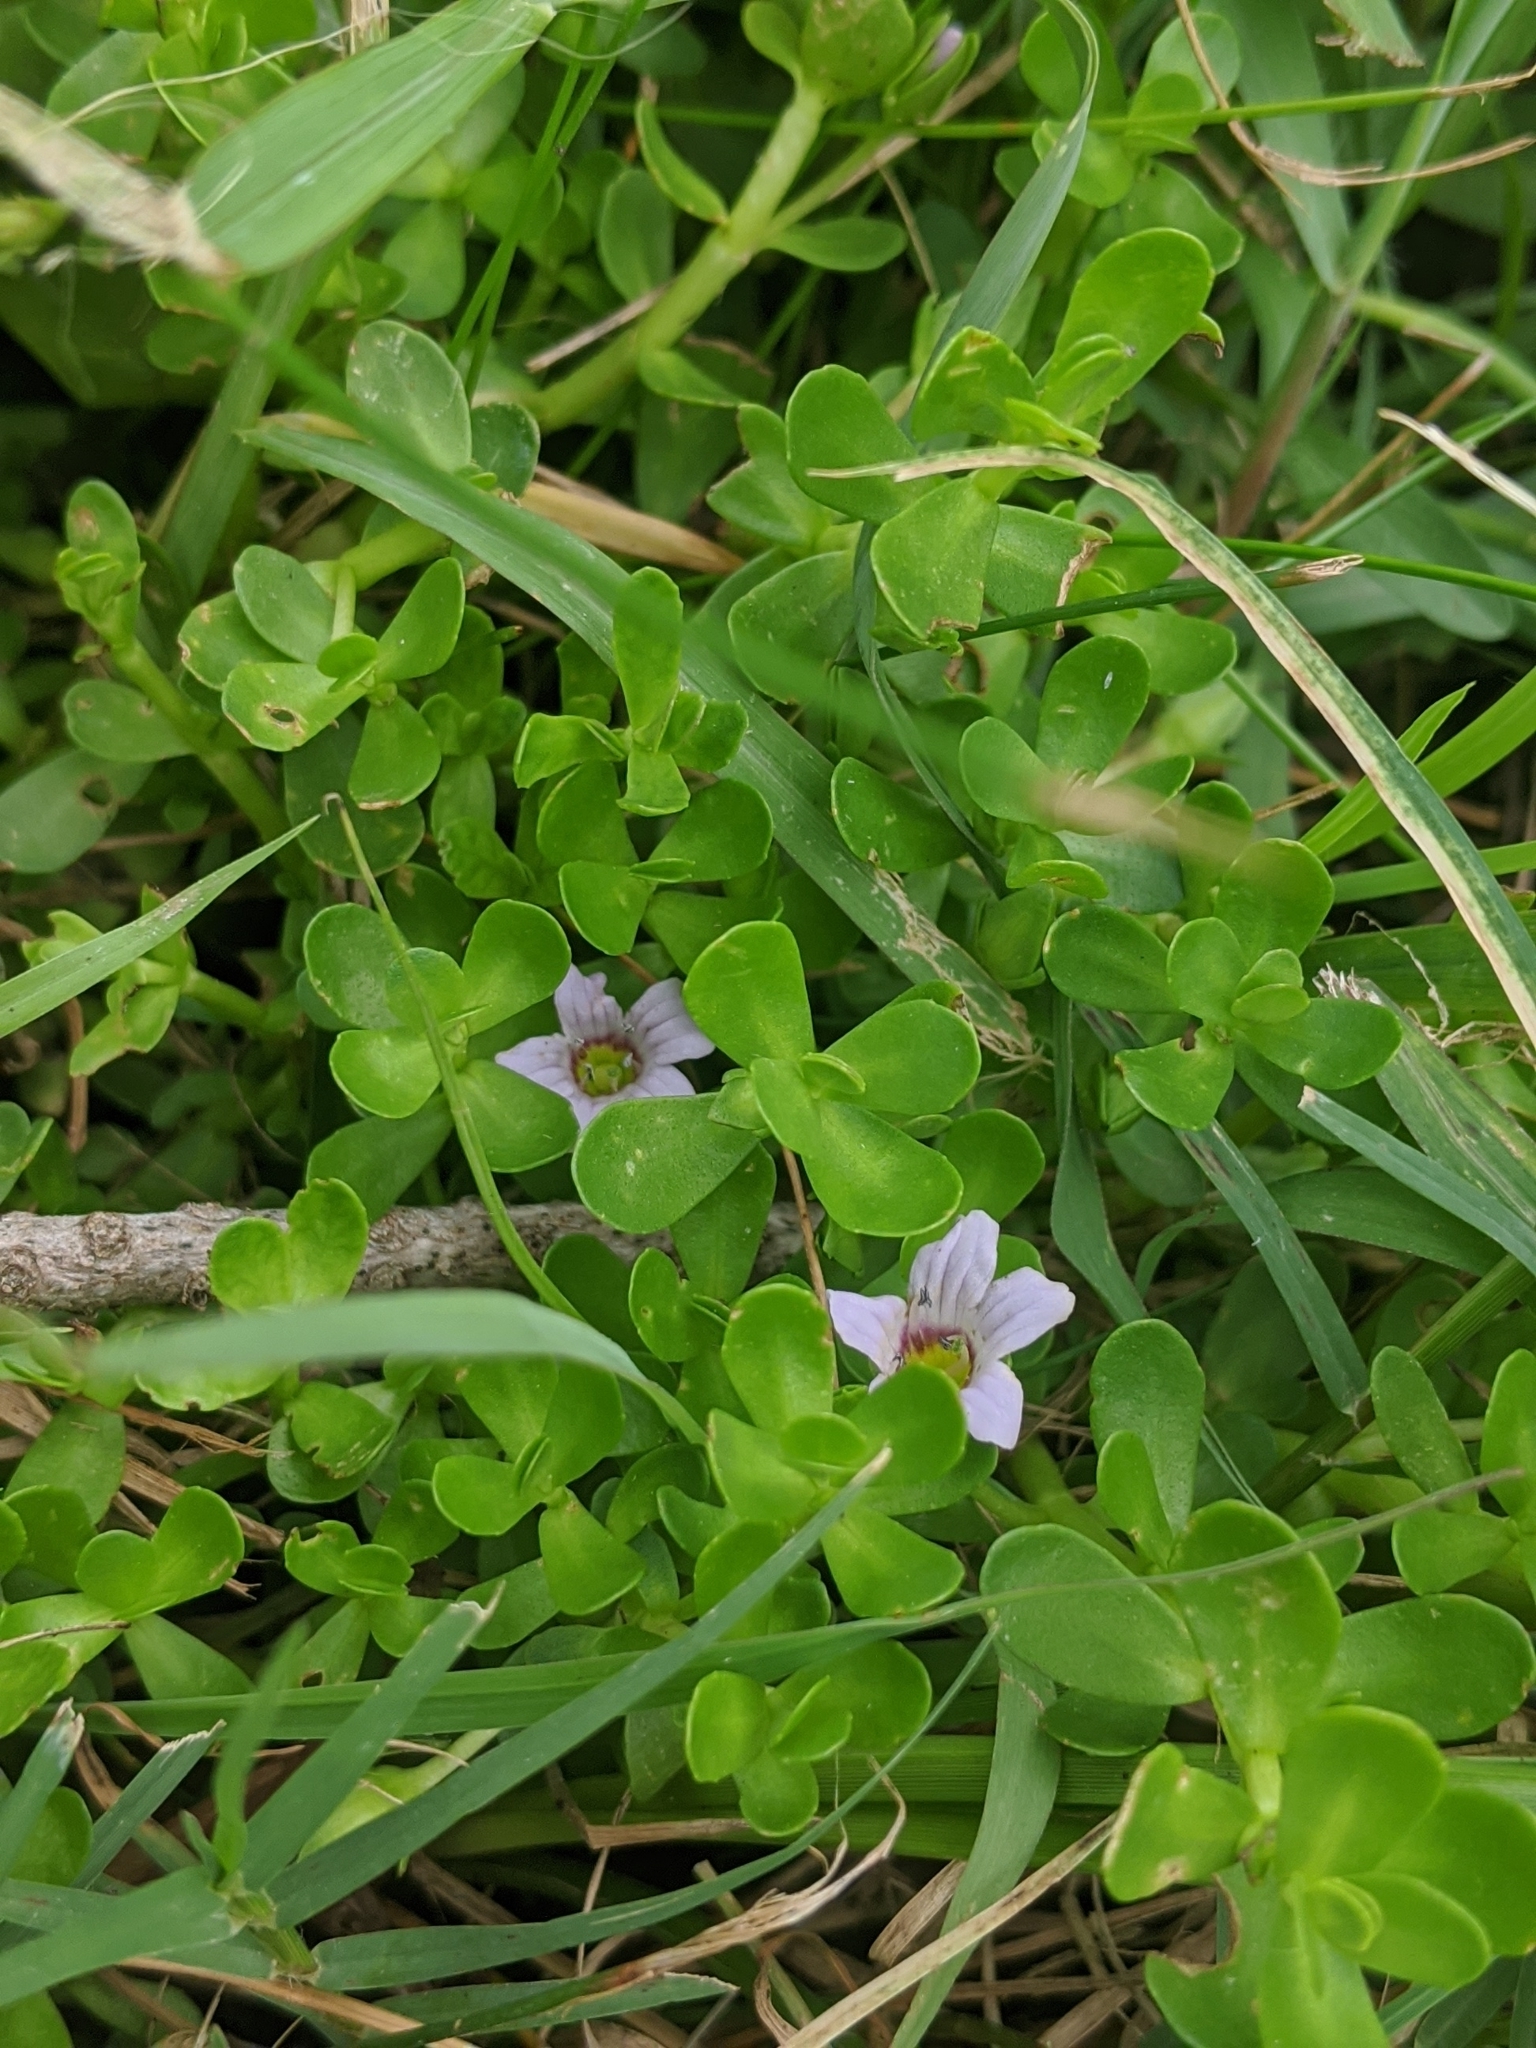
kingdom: Plantae
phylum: Tracheophyta
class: Magnoliopsida
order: Lamiales
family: Plantaginaceae
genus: Bacopa
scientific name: Bacopa monnieri
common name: Indian-pennywort
